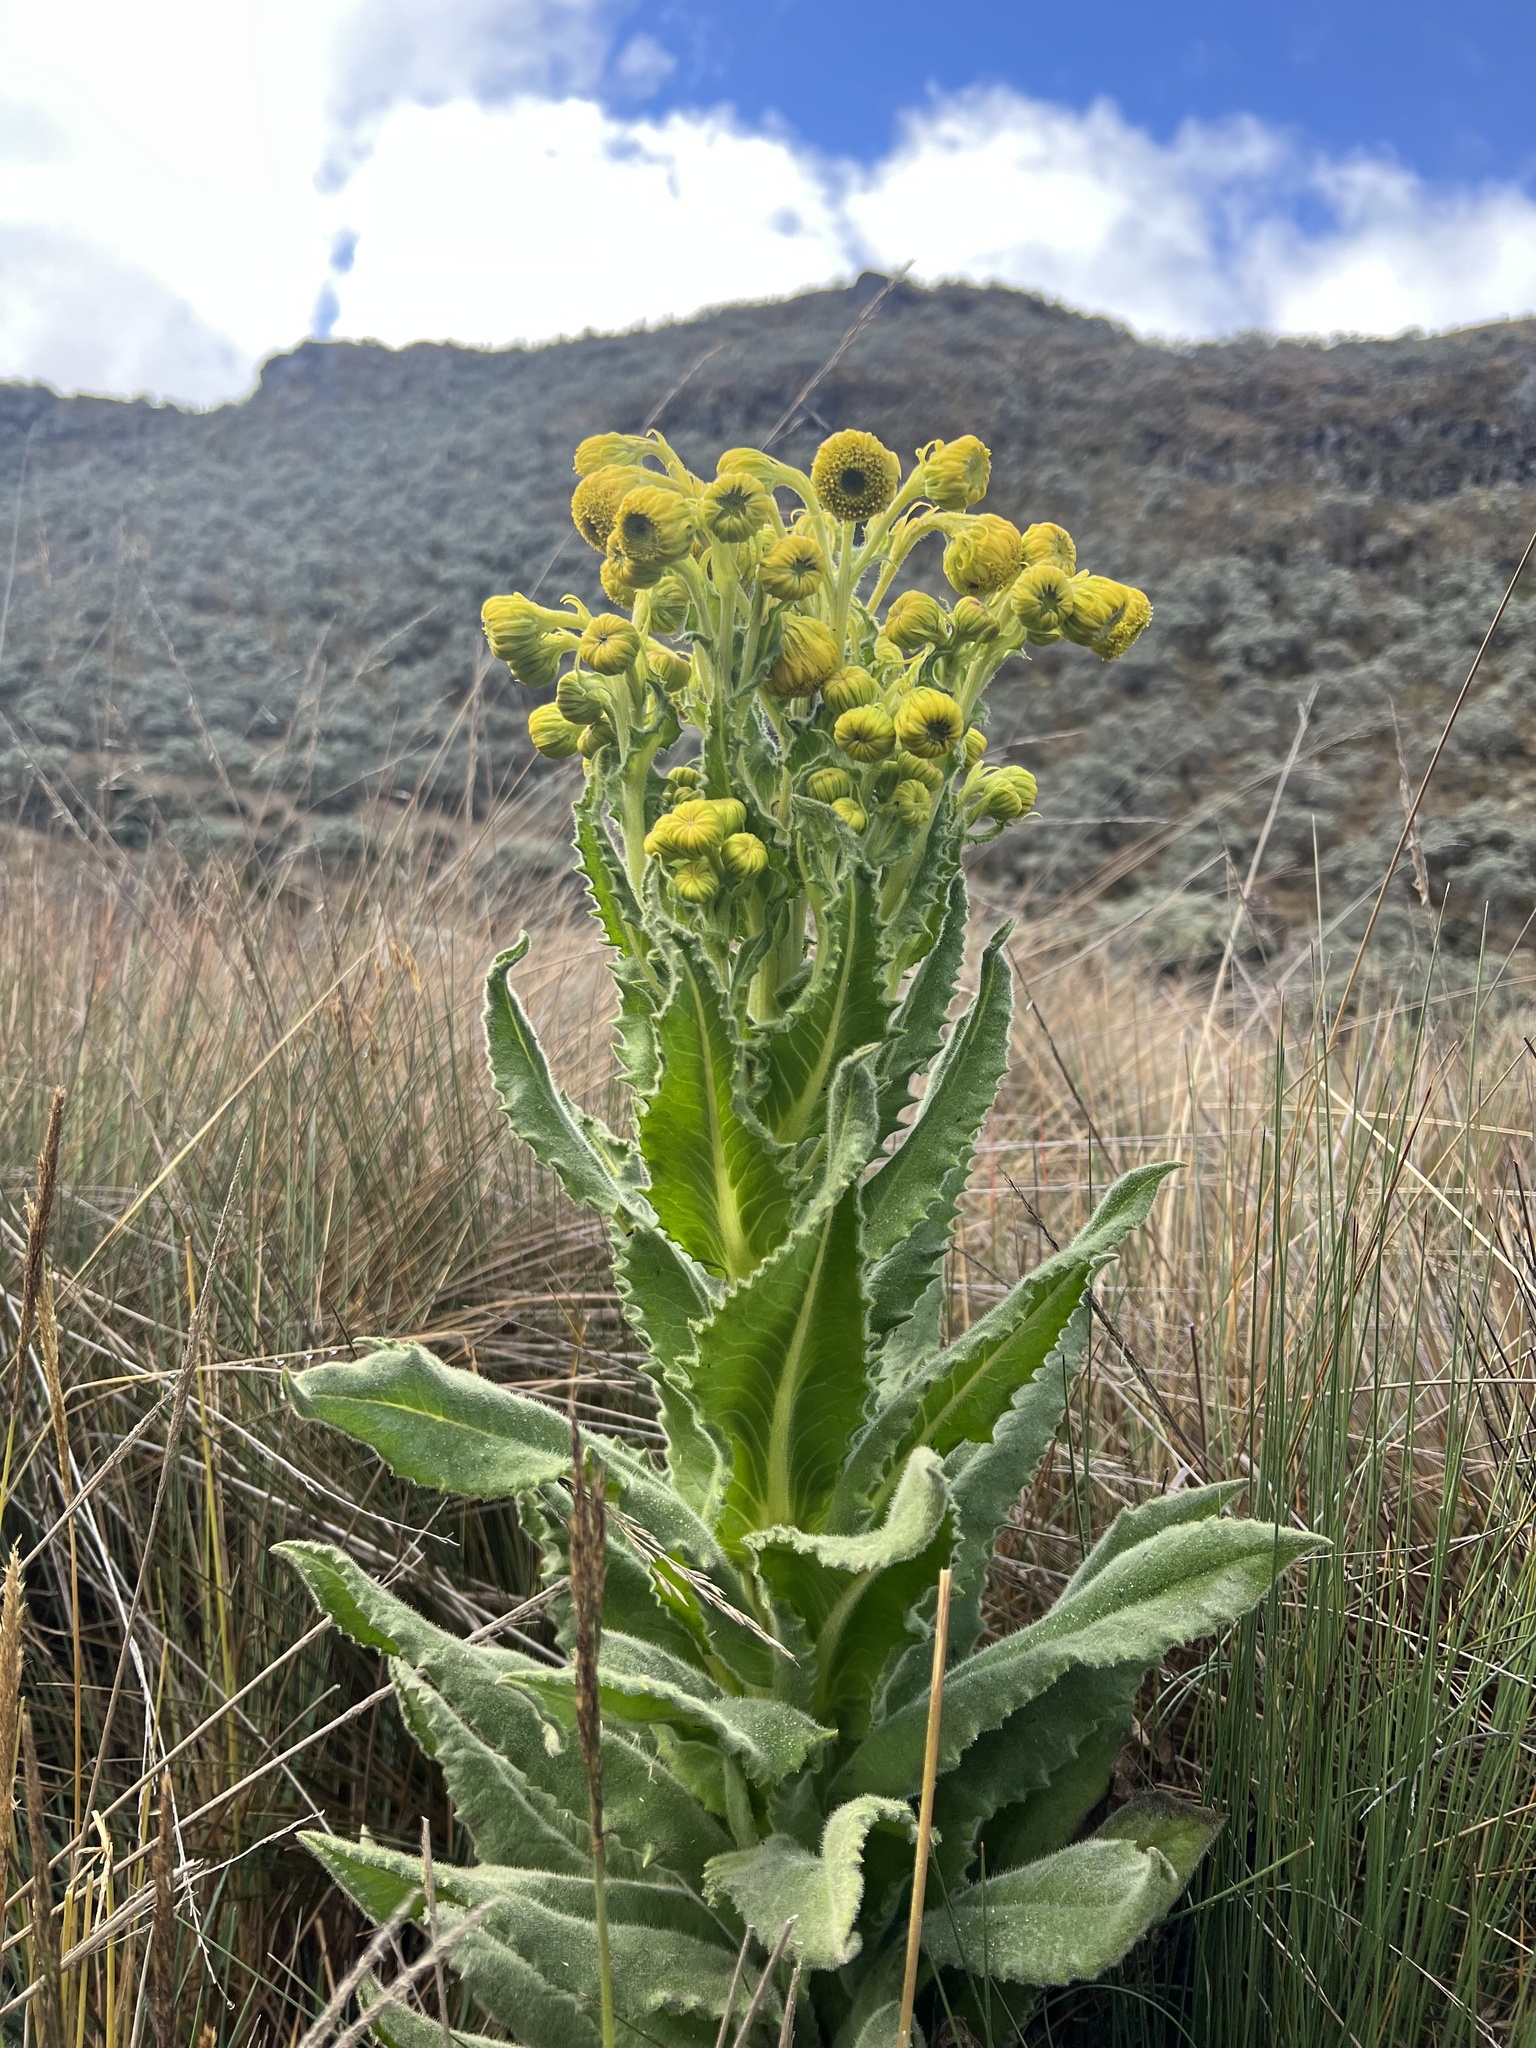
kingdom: Plantae
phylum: Tracheophyta
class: Magnoliopsida
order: Asterales
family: Asteraceae
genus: Senecio
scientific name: Senecio isabelis
